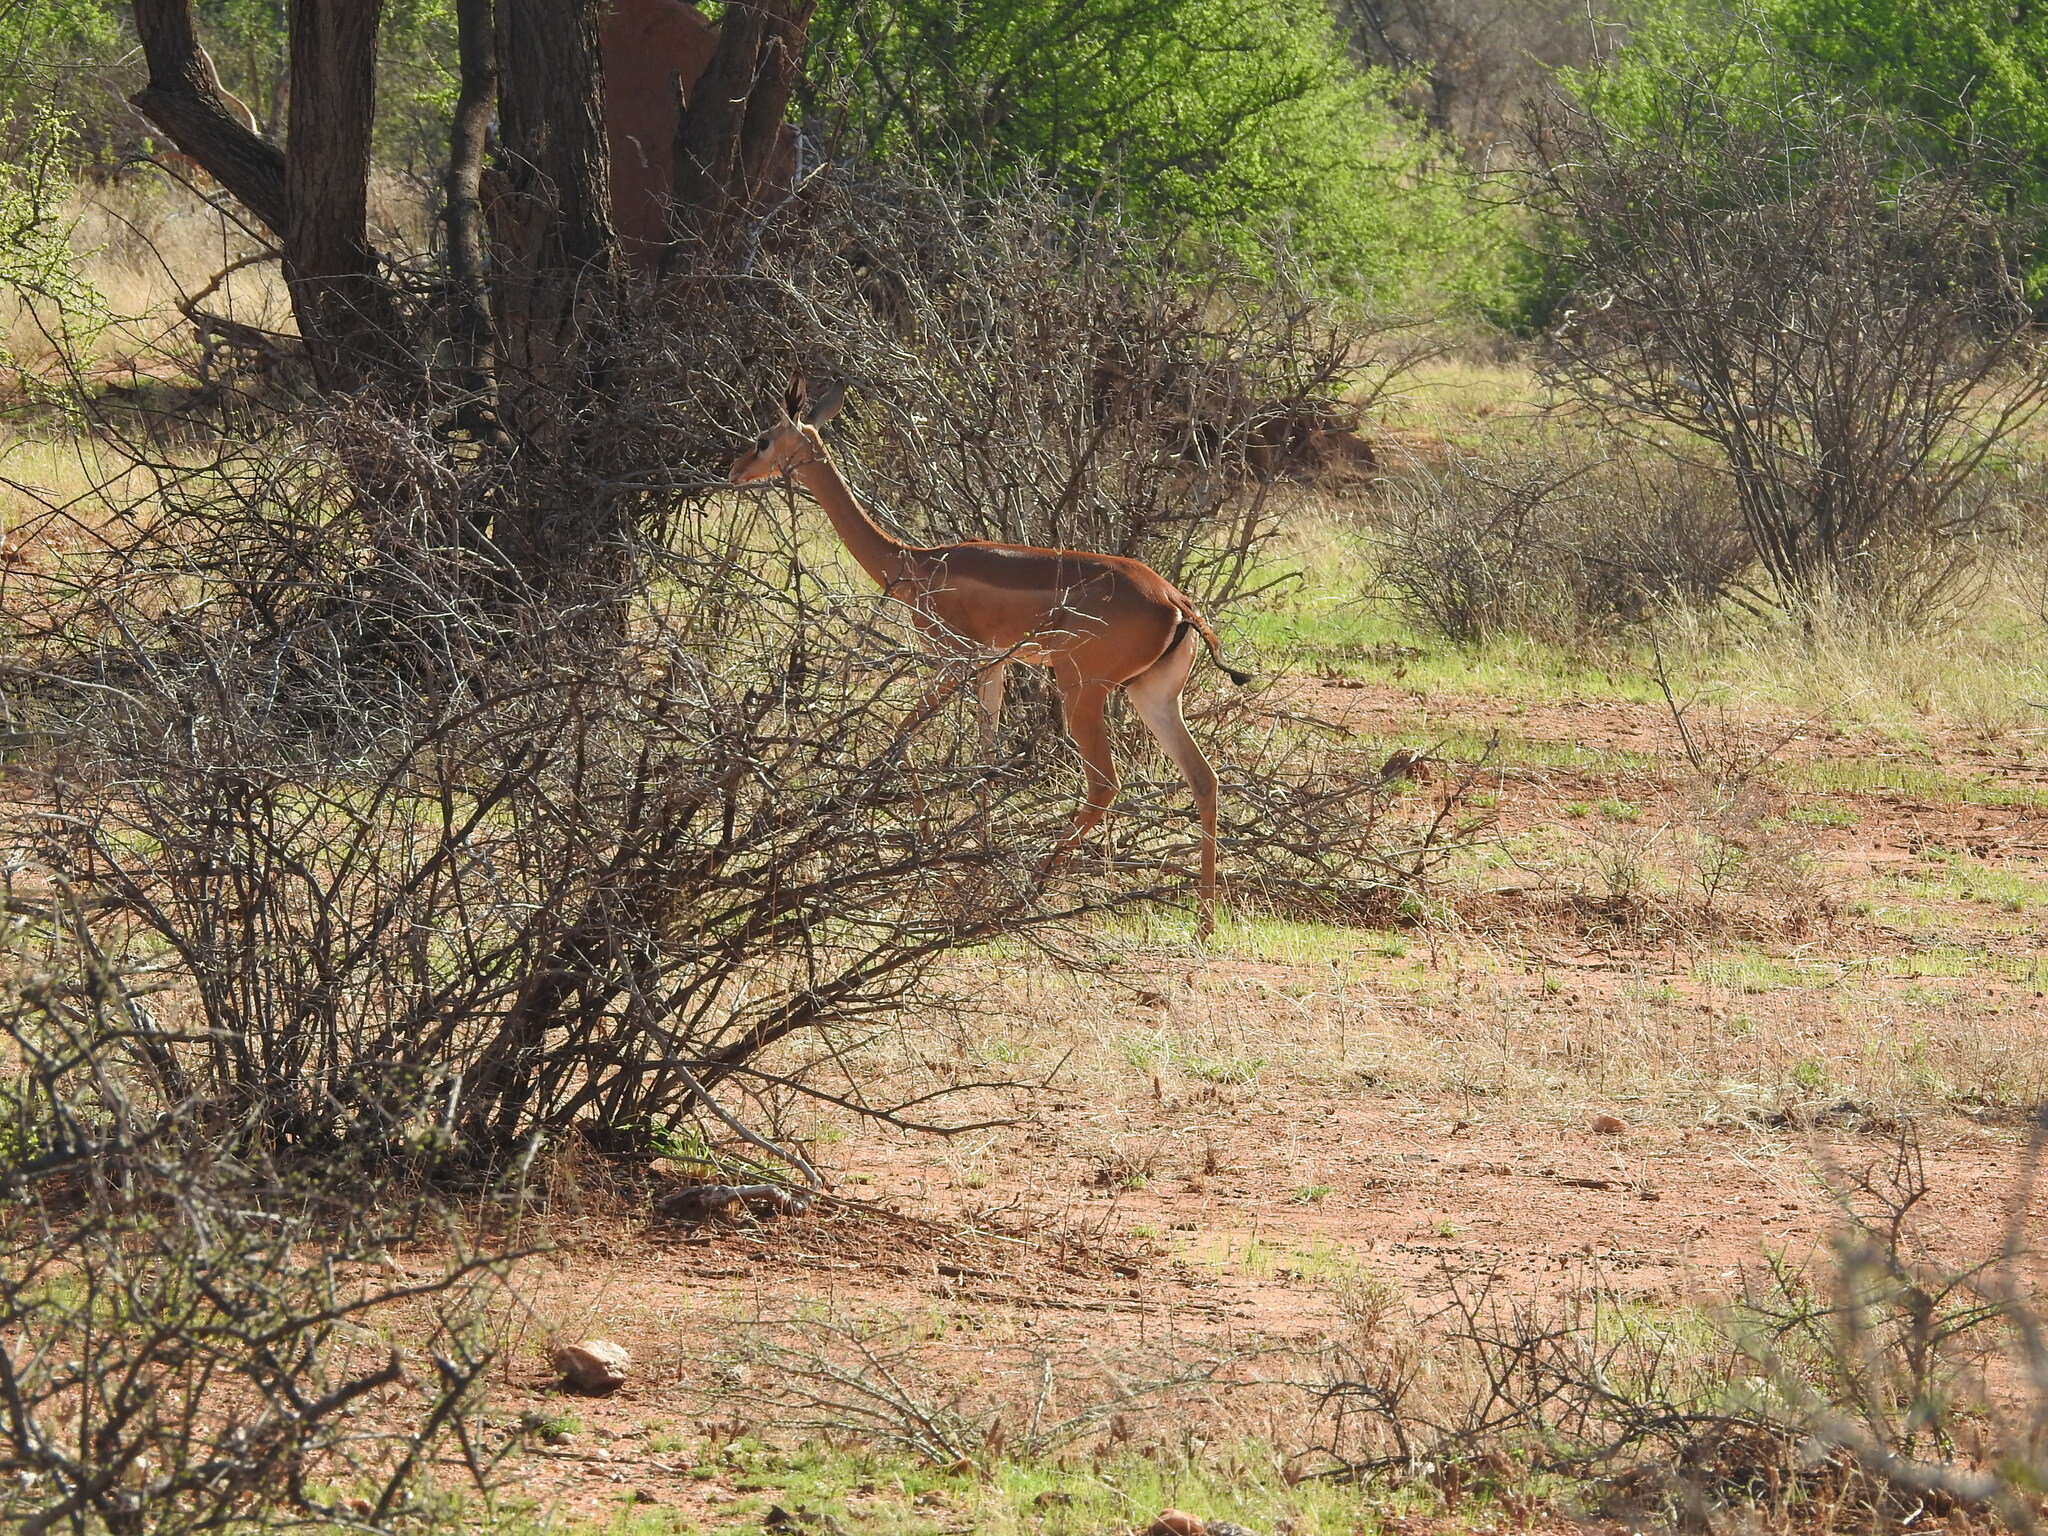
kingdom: Animalia
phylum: Chordata
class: Mammalia
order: Artiodactyla
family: Bovidae
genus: Litocranius
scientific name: Litocranius walleri
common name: Gerenuk
